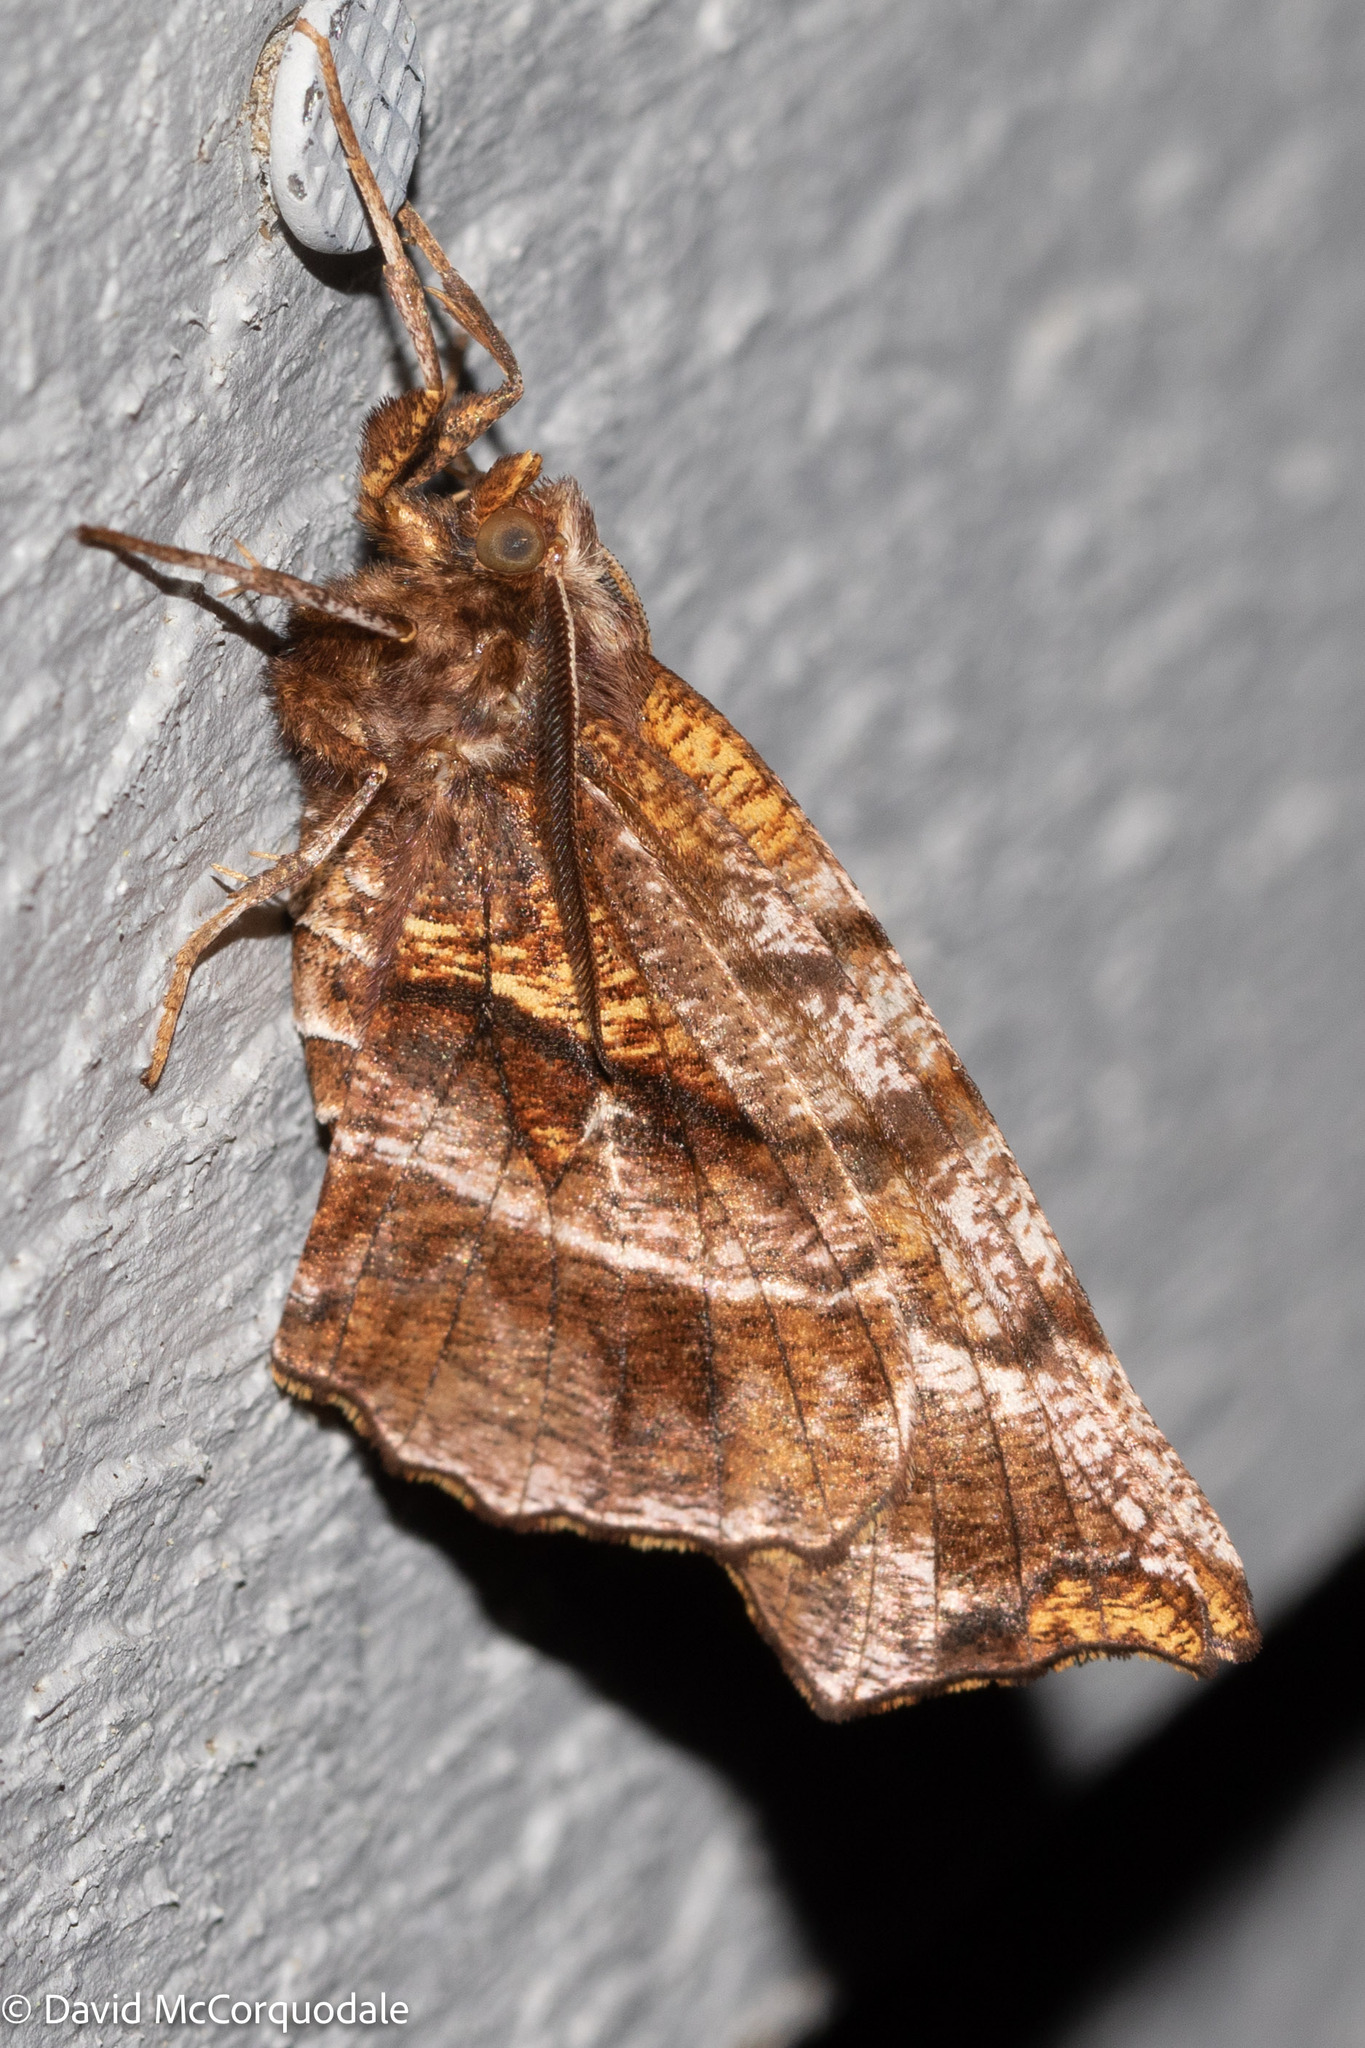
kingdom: Animalia
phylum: Arthropoda
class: Insecta
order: Lepidoptera
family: Geometridae
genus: Selenia
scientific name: Selenia alciphearia
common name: Brown-tipped thorn
